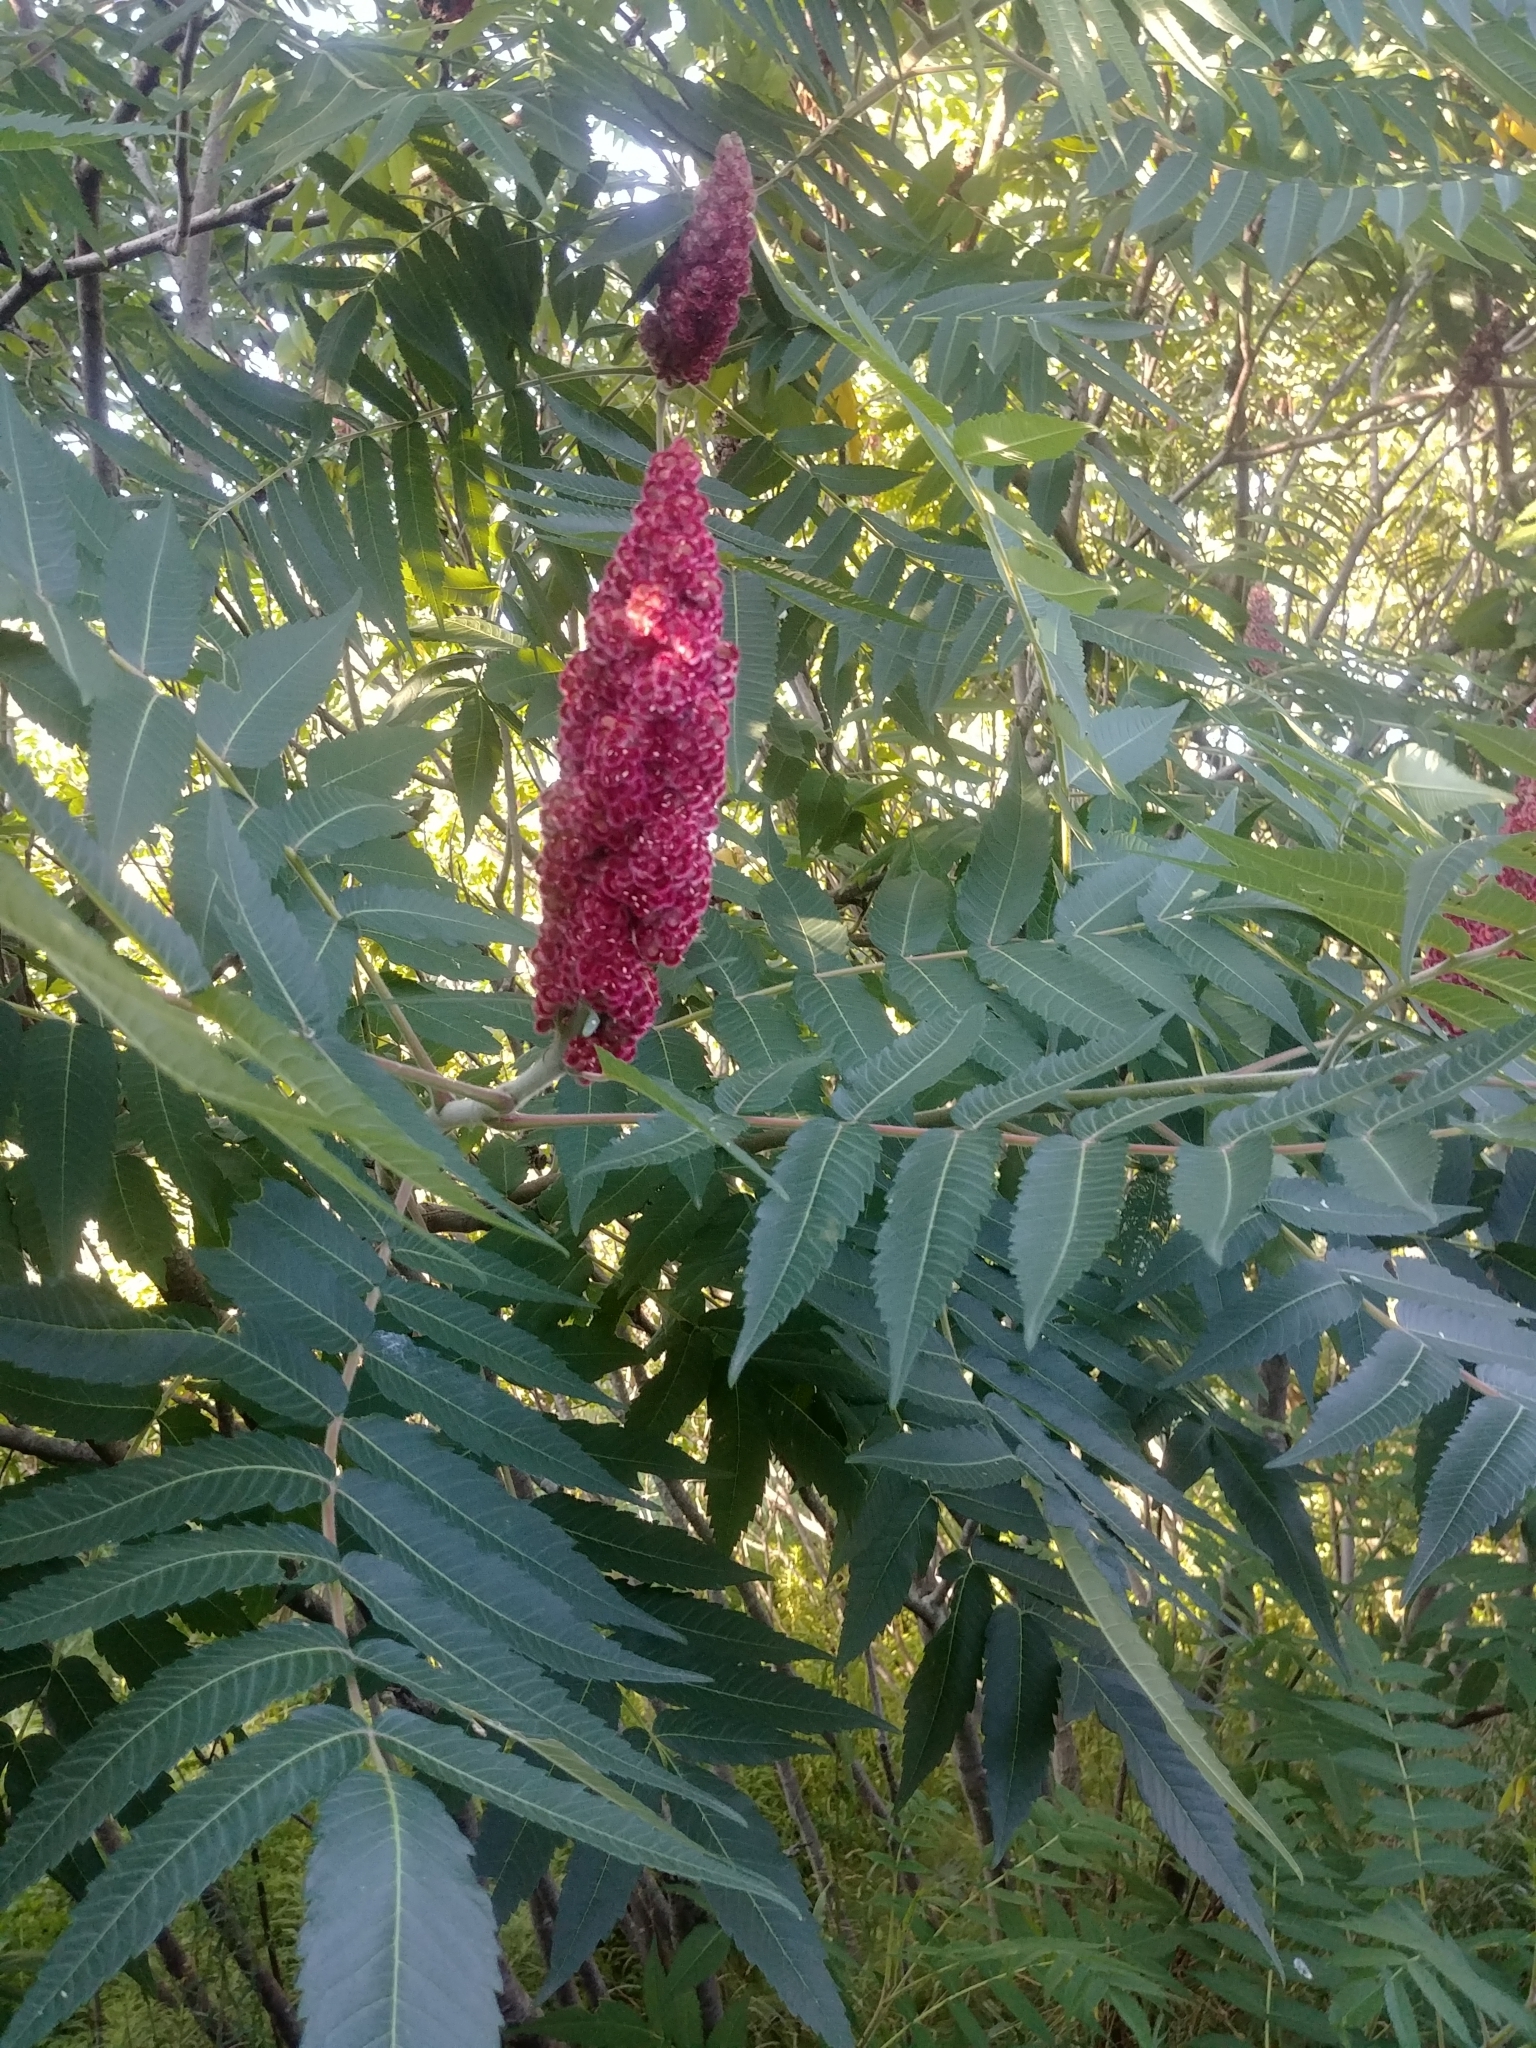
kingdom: Plantae
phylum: Tracheophyta
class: Magnoliopsida
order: Sapindales
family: Anacardiaceae
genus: Rhus
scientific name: Rhus typhina
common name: Staghorn sumac
